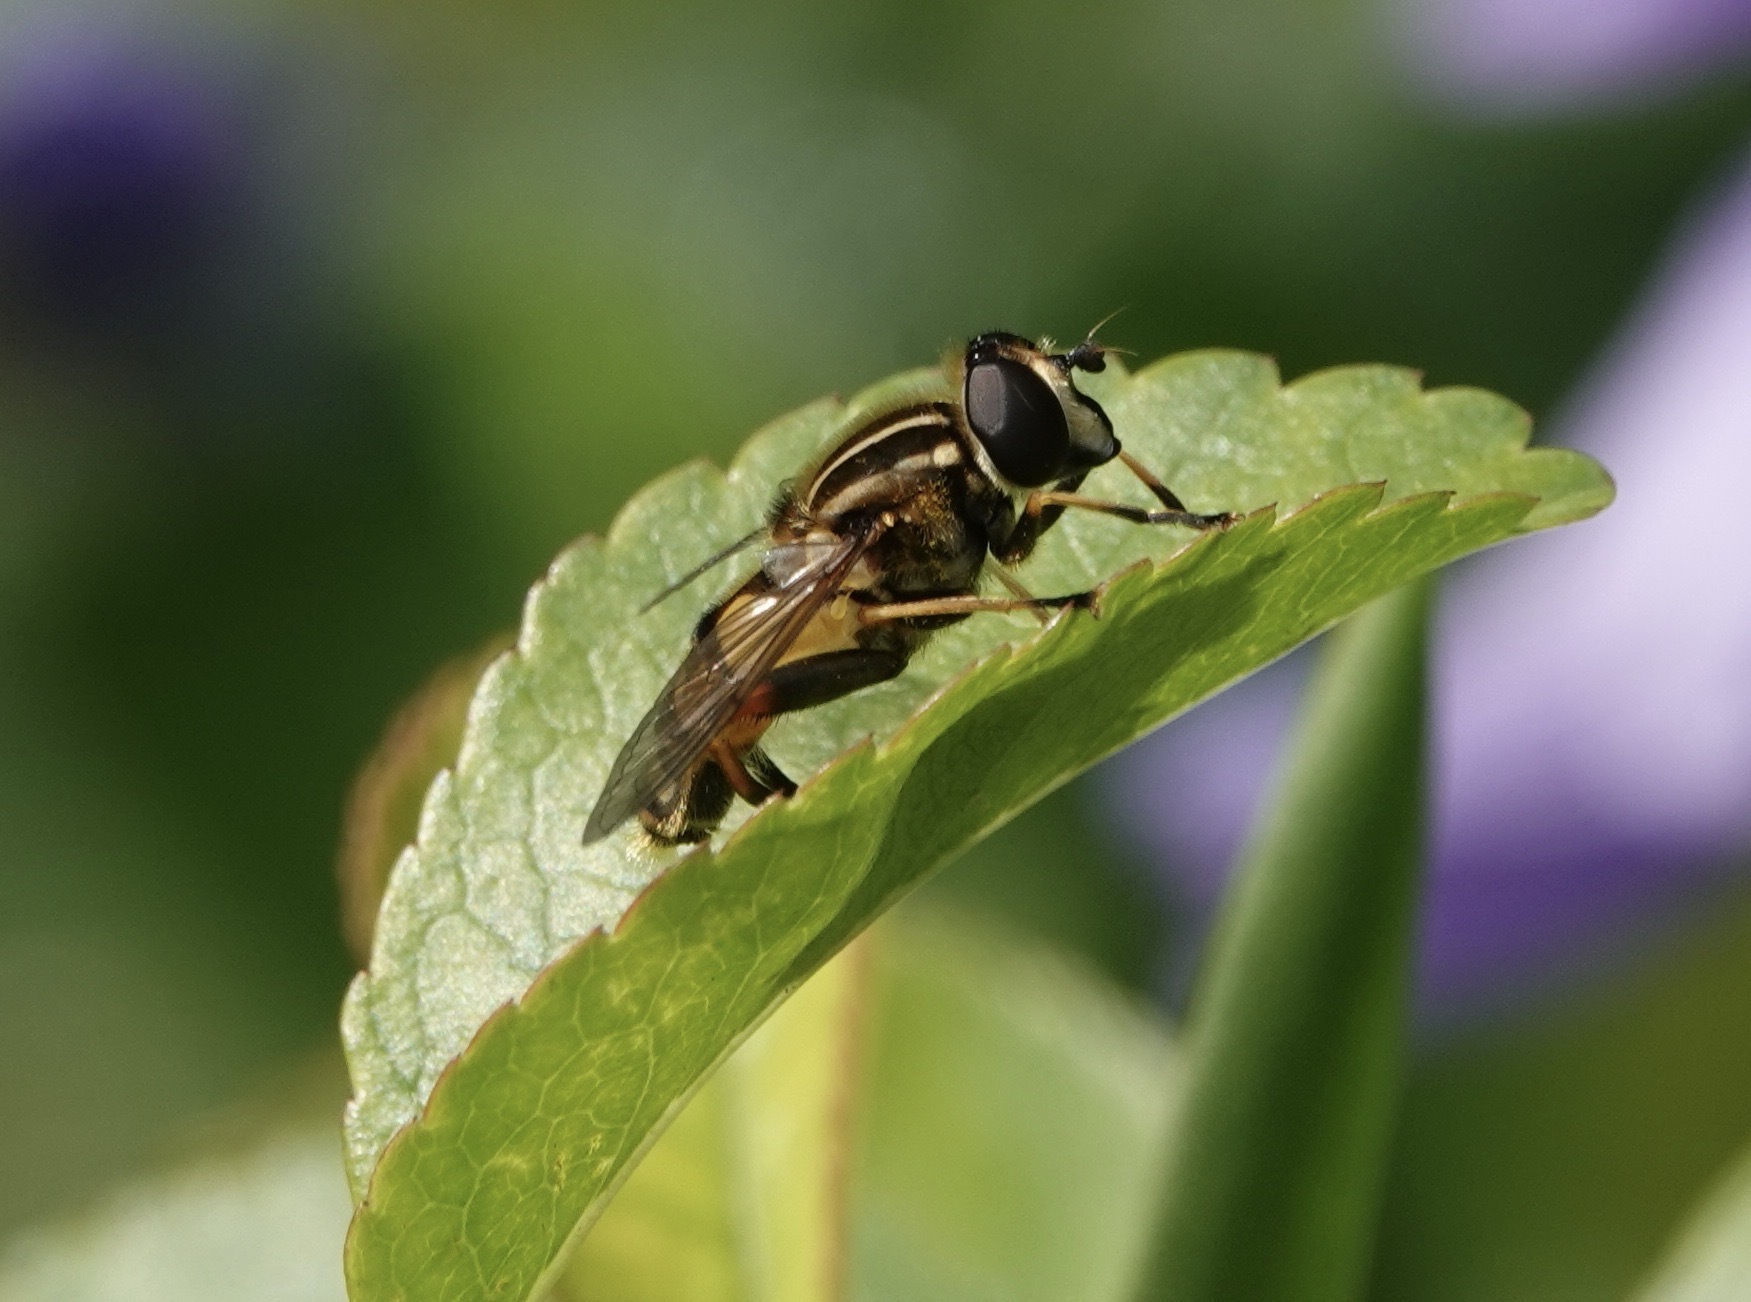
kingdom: Animalia
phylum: Arthropoda
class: Insecta
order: Diptera
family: Syrphidae
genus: Helophilus
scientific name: Helophilus pendulus
